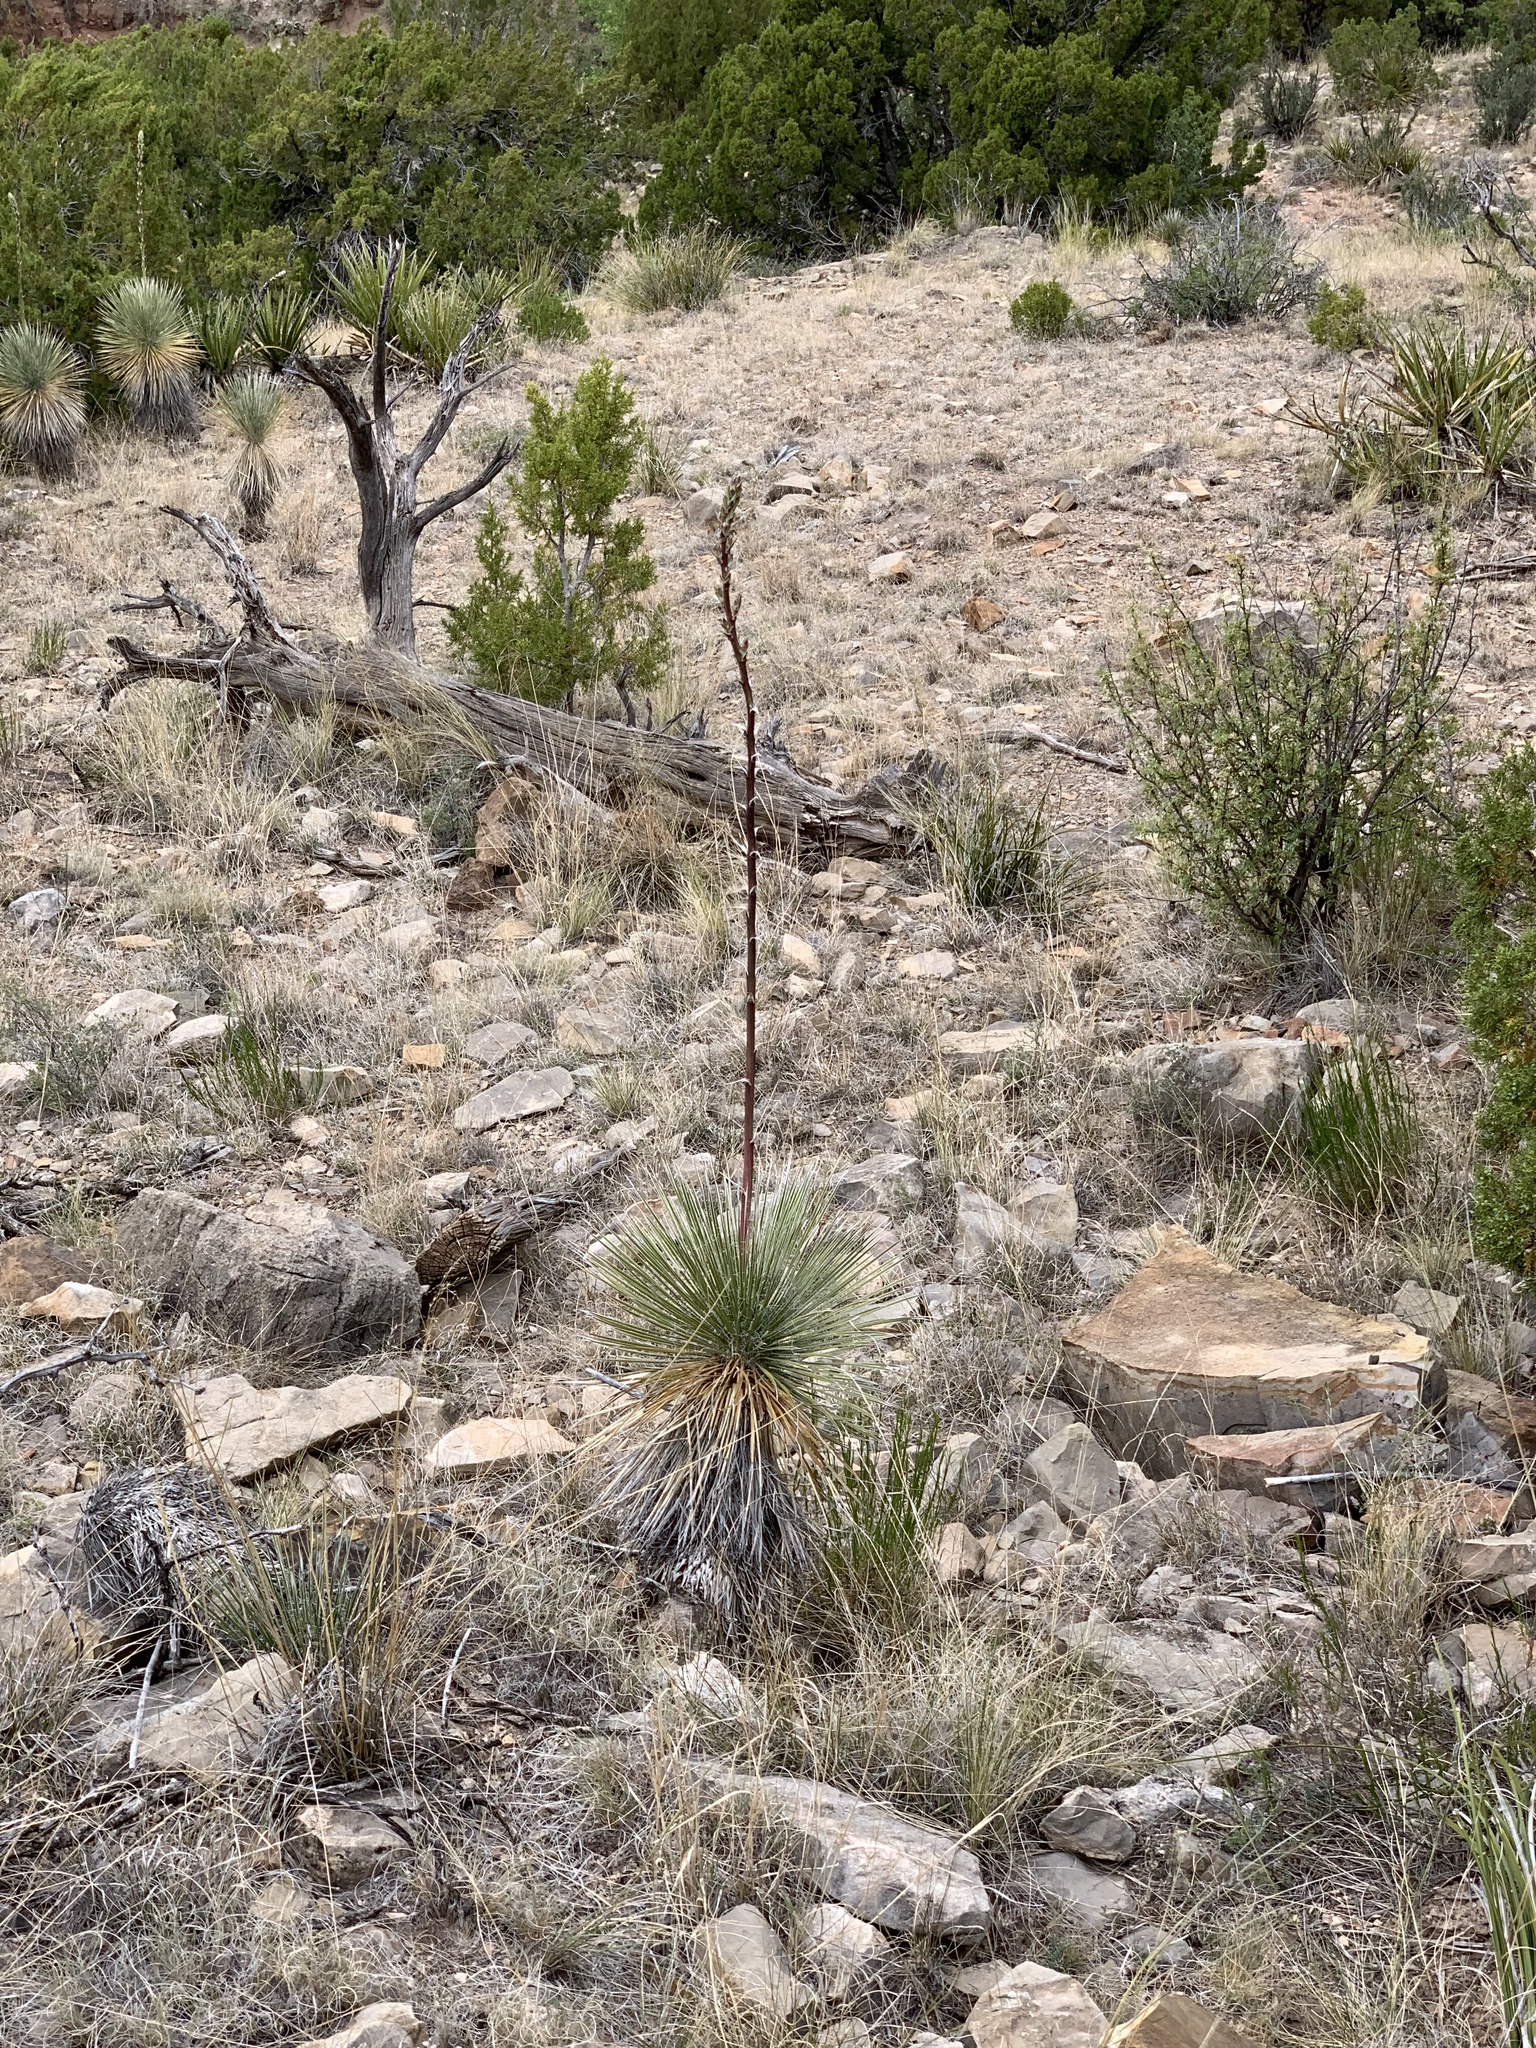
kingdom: Plantae
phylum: Tracheophyta
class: Liliopsida
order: Asparagales
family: Asparagaceae
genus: Yucca
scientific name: Yucca elata
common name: Palmella
